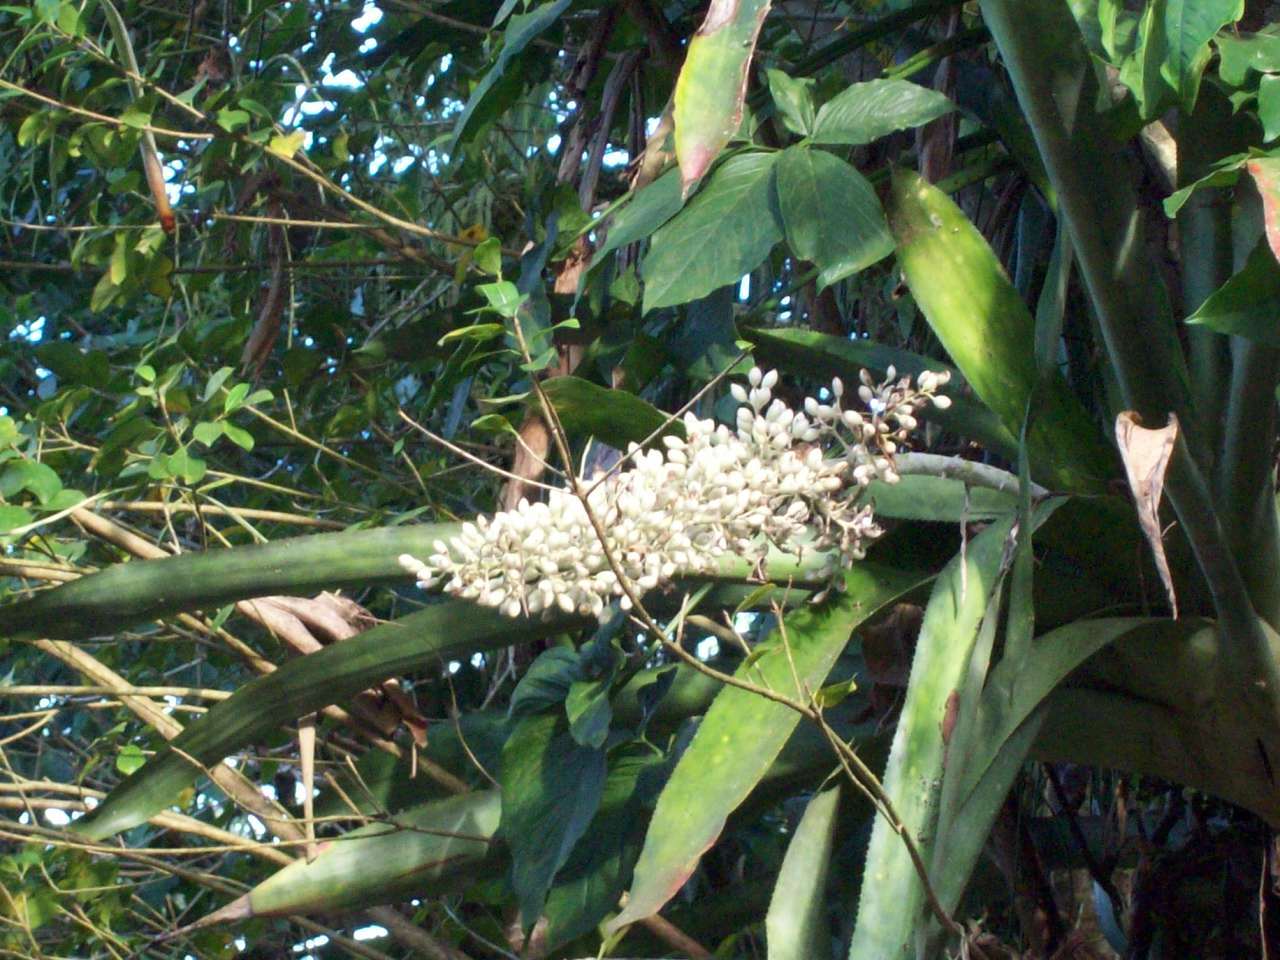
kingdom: Plantae
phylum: Tracheophyta
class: Liliopsida
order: Poales
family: Bromeliaceae
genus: Aechmea
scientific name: Aechmea mexicana
